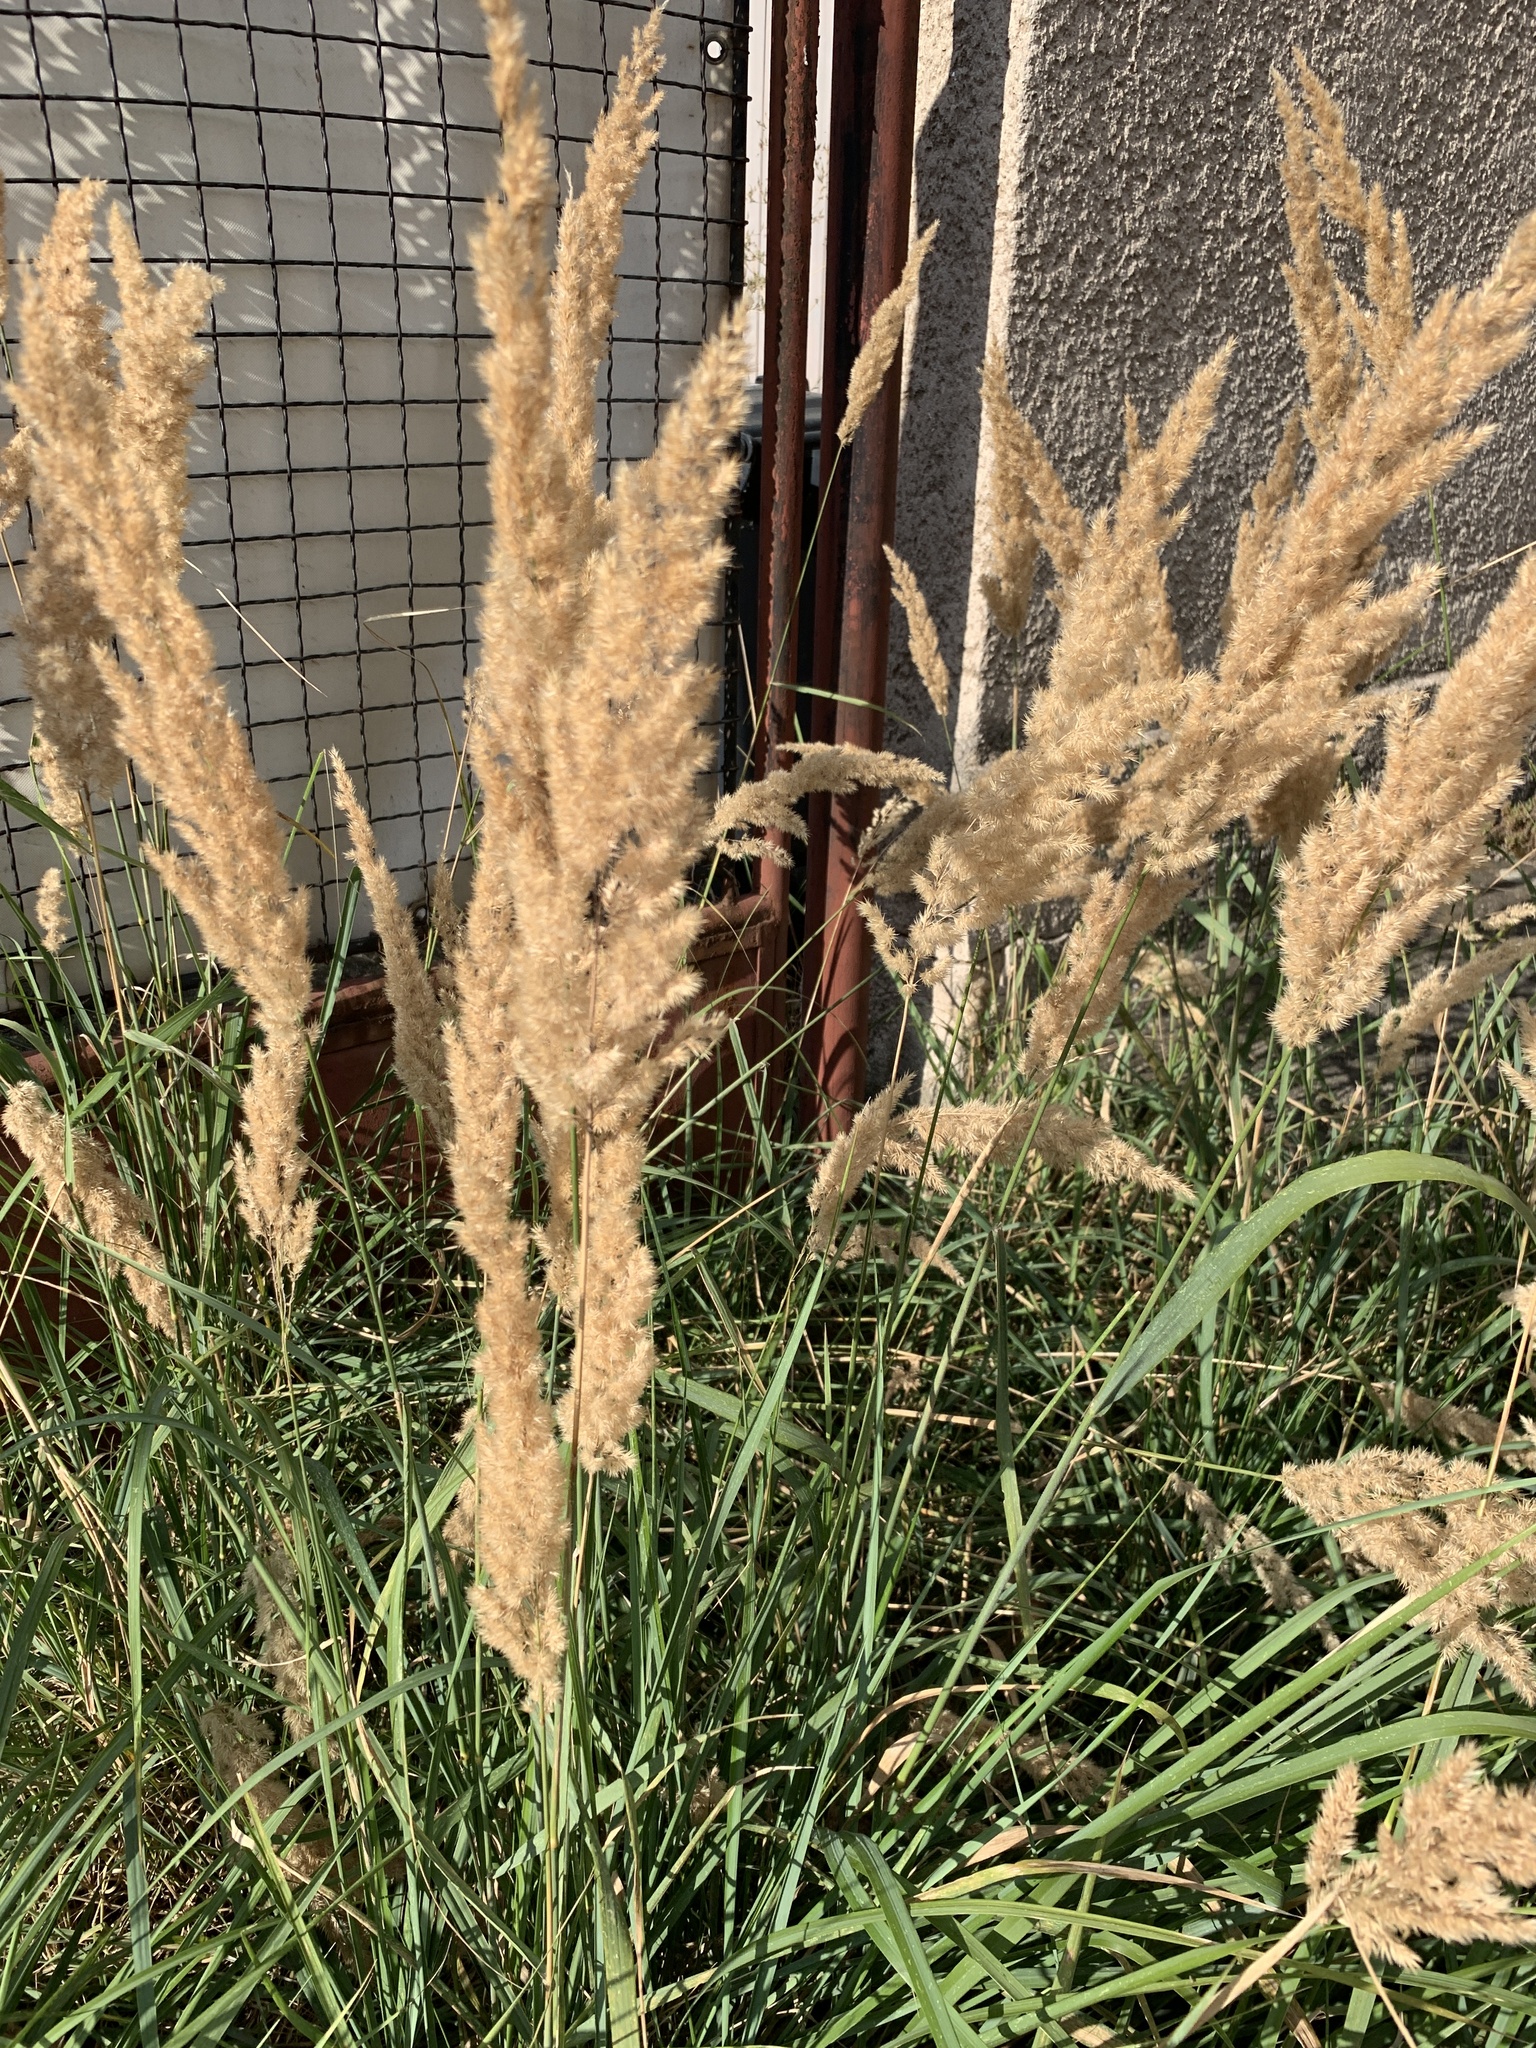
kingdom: Plantae
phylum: Tracheophyta
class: Liliopsida
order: Poales
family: Poaceae
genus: Calamagrostis
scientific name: Calamagrostis epigejos
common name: Wood small-reed
